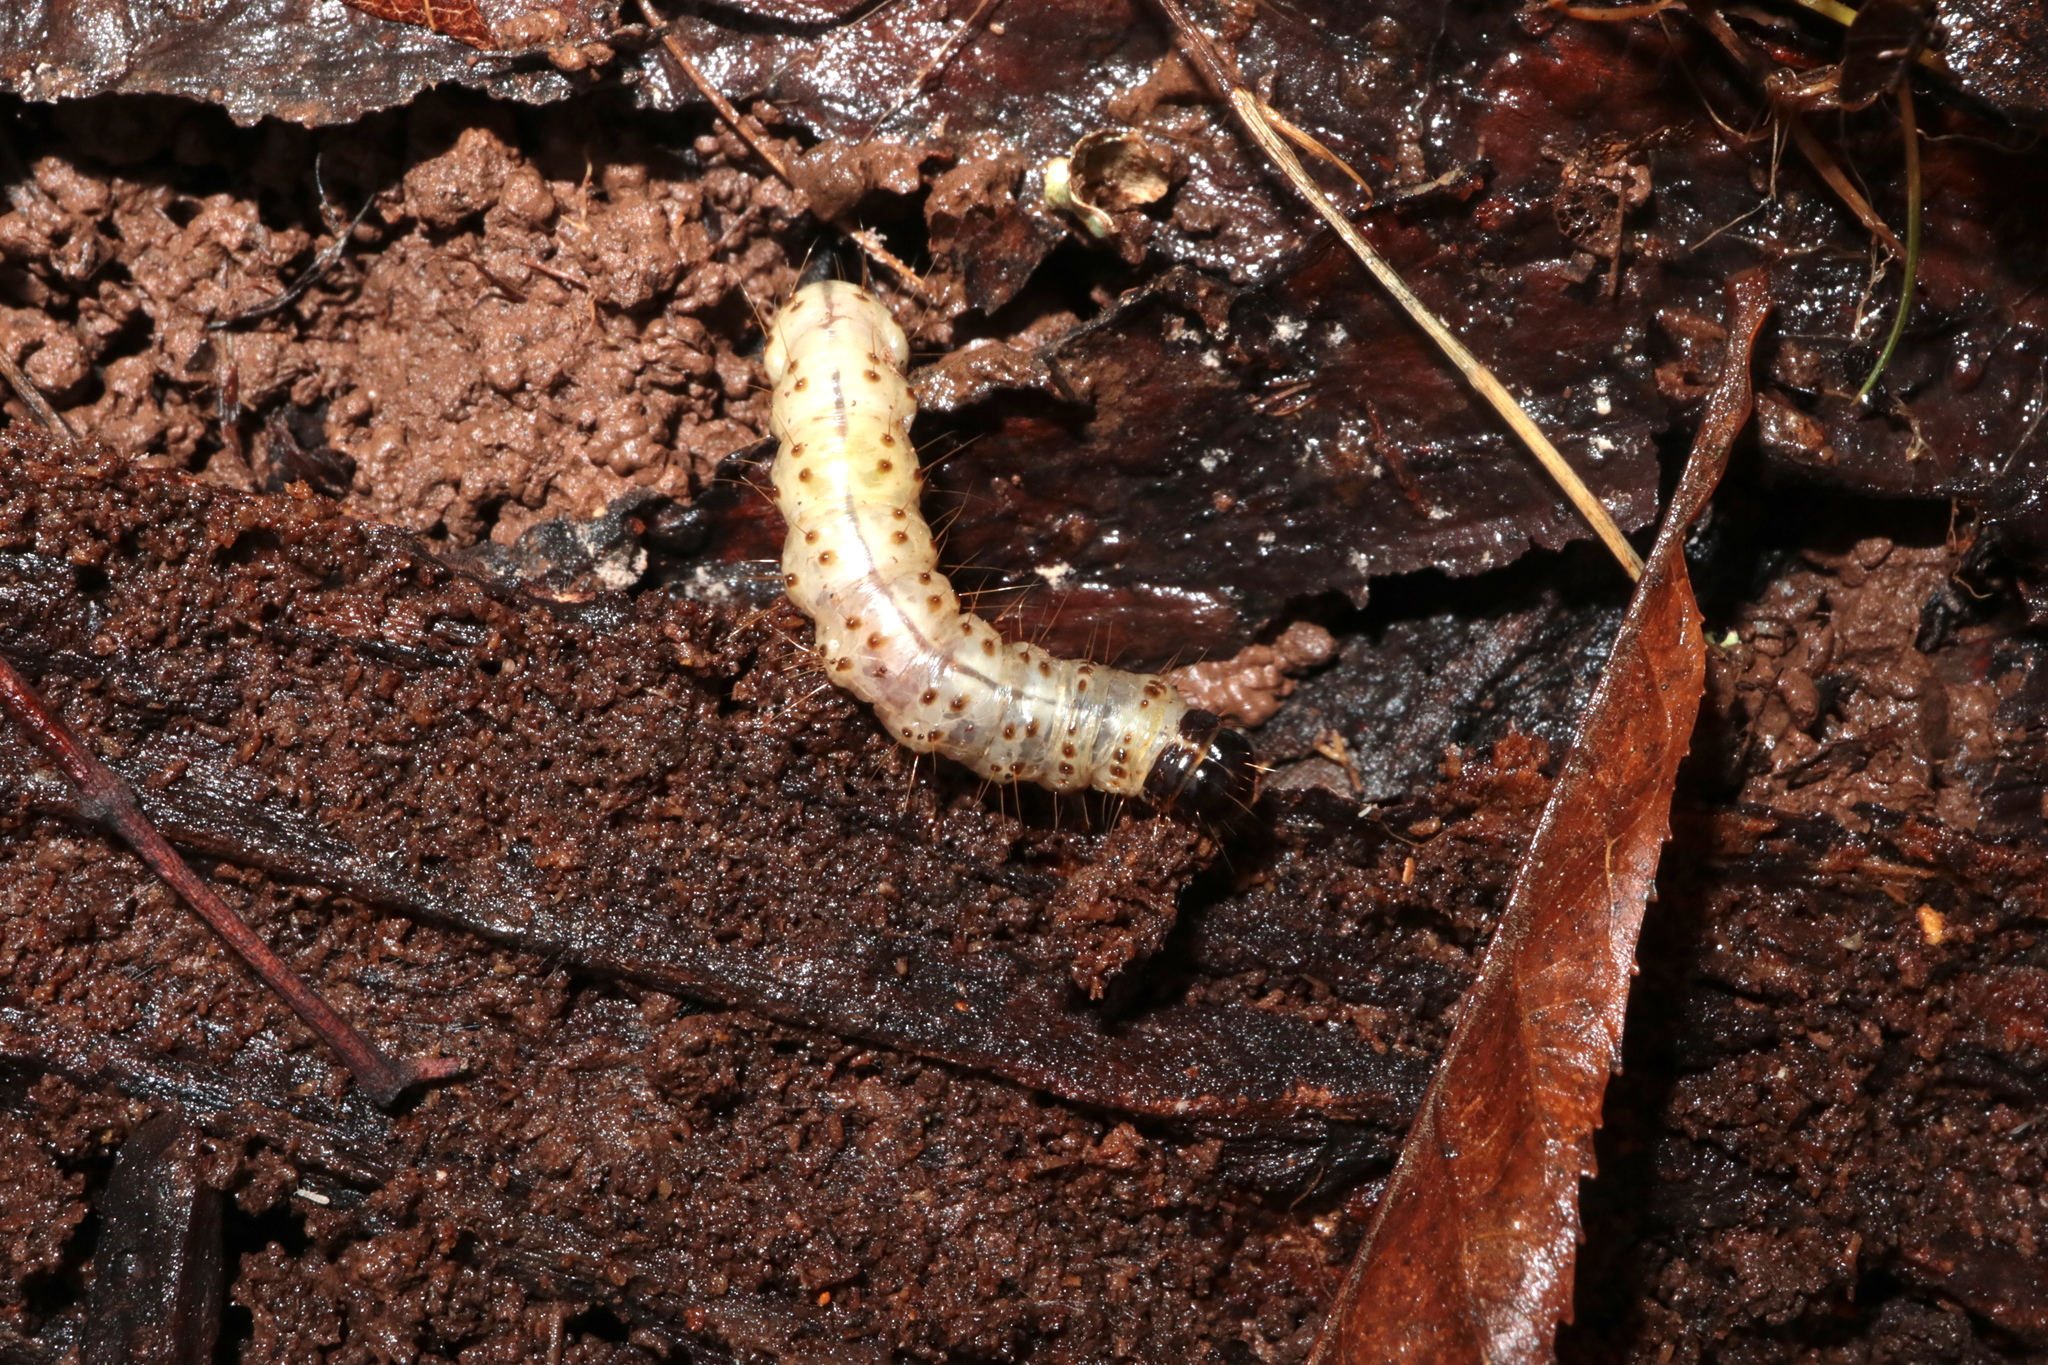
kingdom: Animalia
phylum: Arthropoda
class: Insecta
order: Lepidoptera
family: Erebidae
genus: Scolecocampa
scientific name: Scolecocampa liburna
